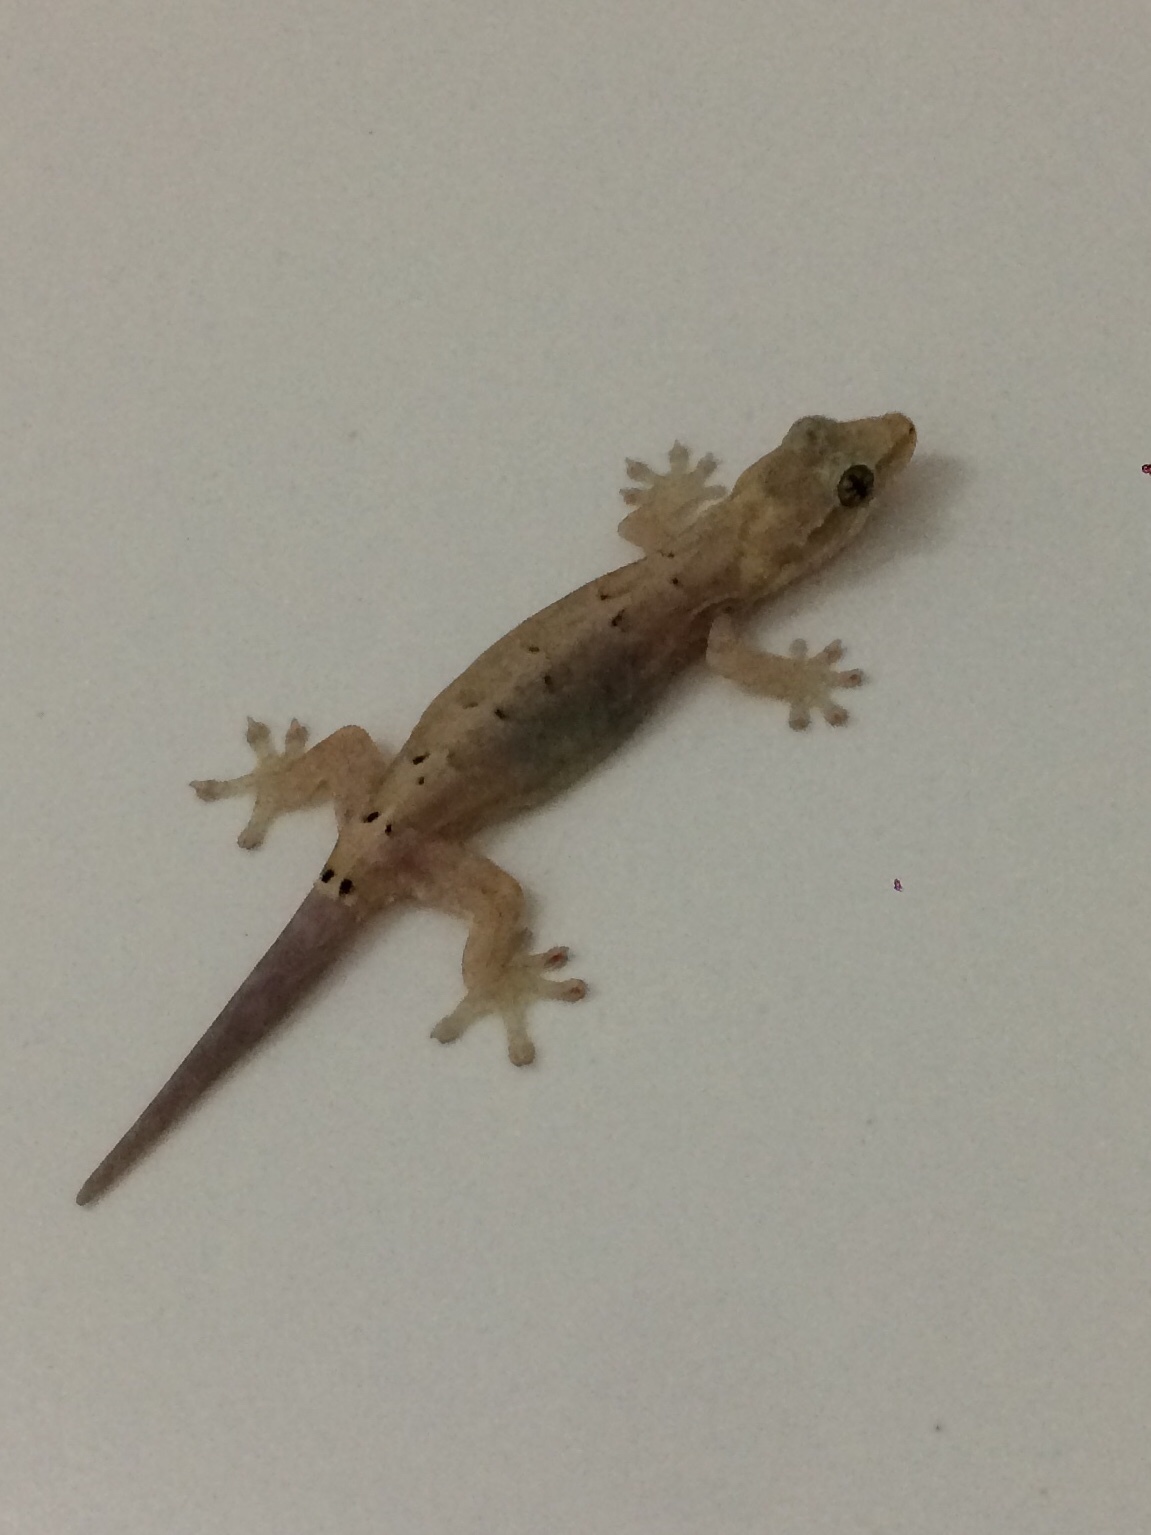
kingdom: Animalia
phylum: Chordata
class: Squamata
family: Gekkonidae
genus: Lepidodactylus
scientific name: Lepidodactylus lugubris
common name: Mourning gecko
